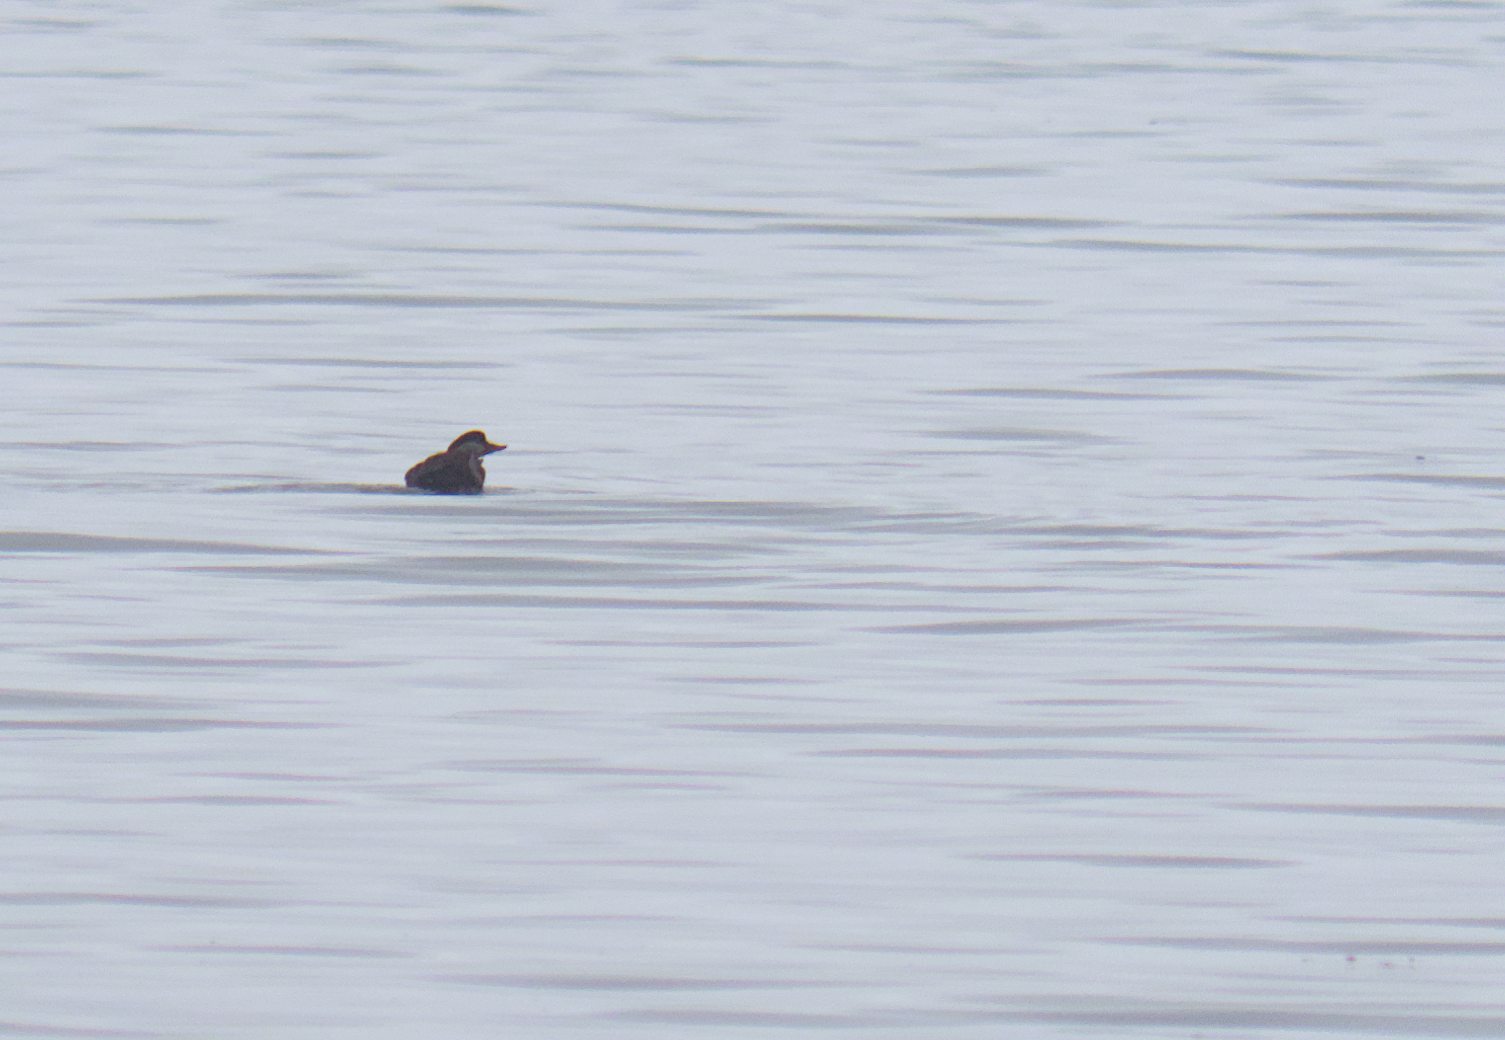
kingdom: Animalia
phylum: Chordata
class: Aves
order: Anseriformes
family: Anatidae
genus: Melanitta
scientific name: Melanitta americana
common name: Black scoter
